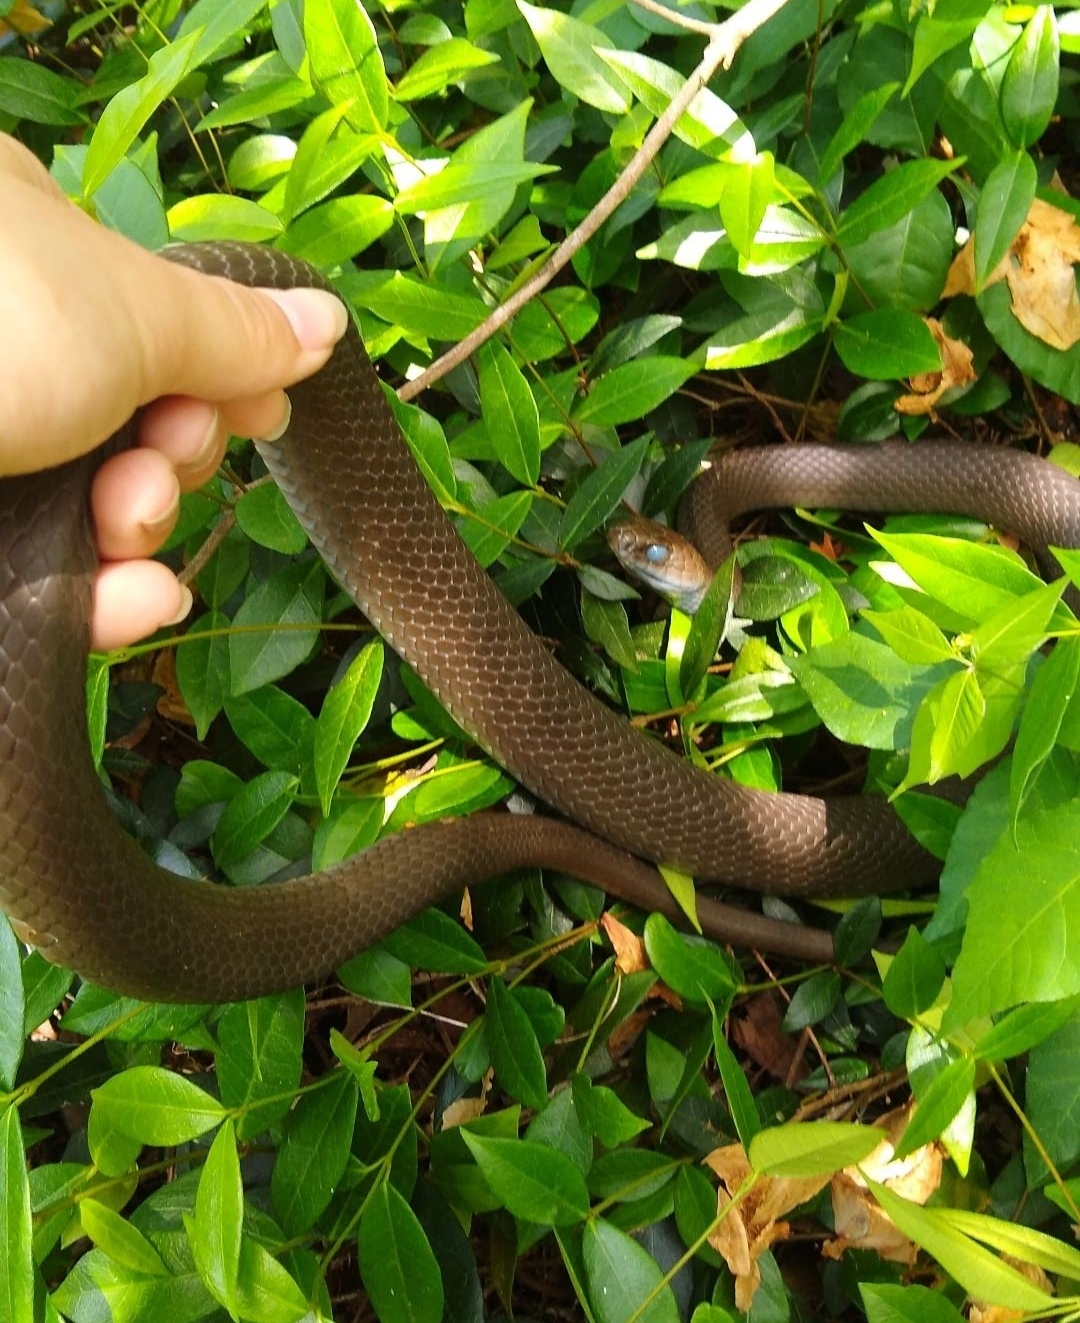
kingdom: Animalia
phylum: Chordata
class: Squamata
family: Colubridae
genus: Coluber
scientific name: Coluber constrictor
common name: Eastern racer
